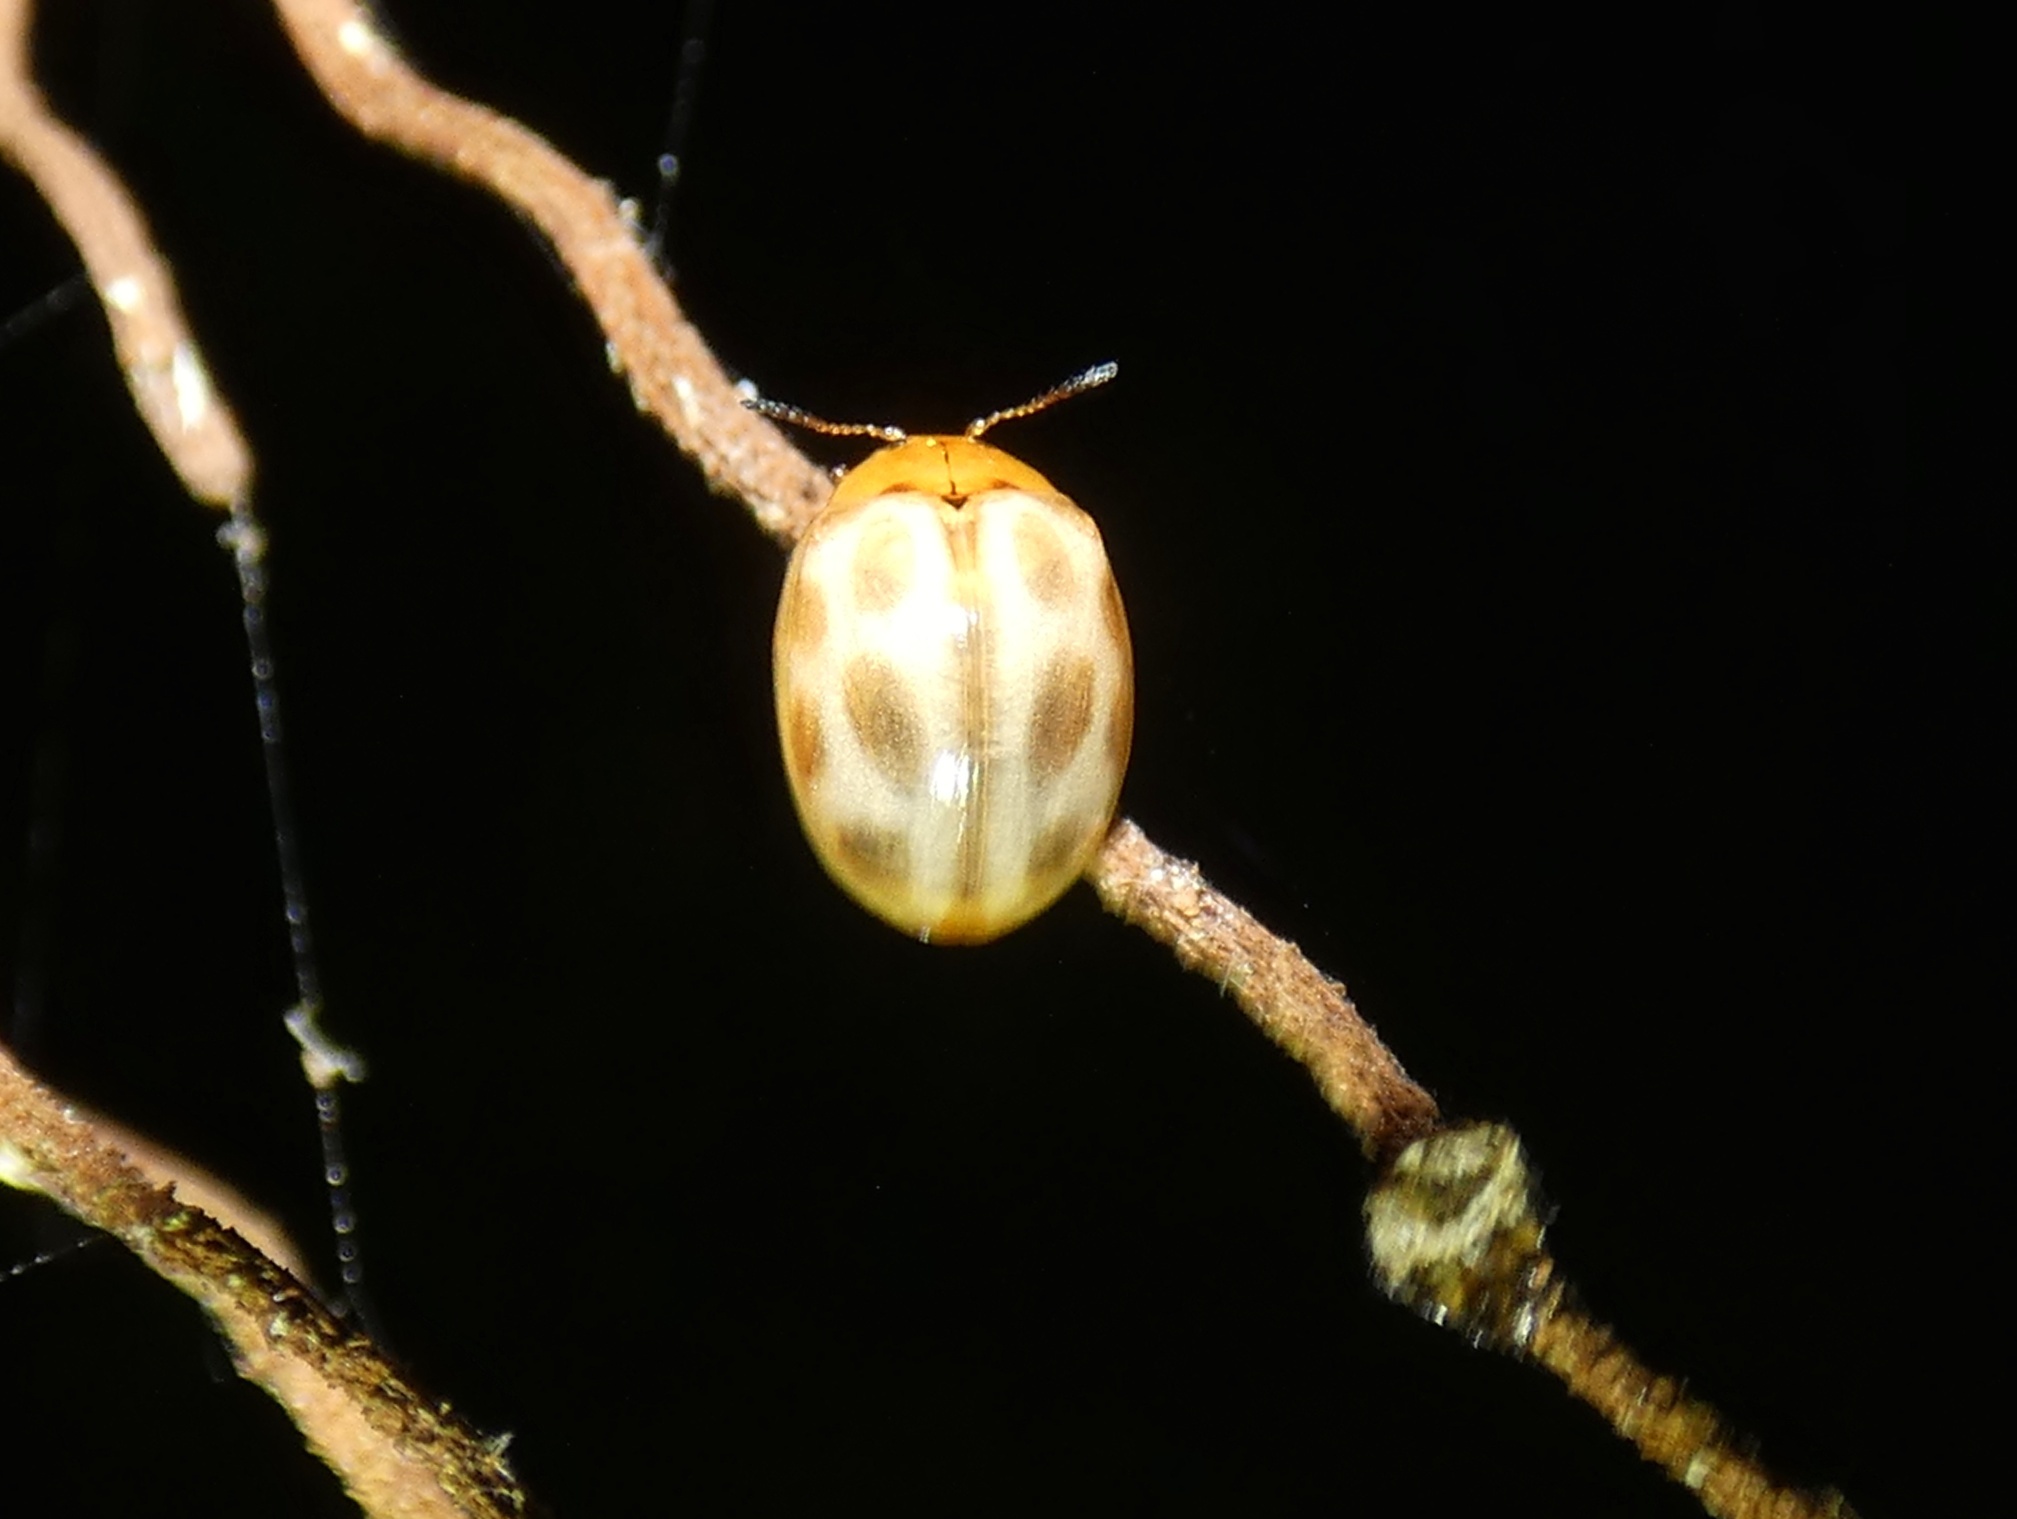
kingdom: Animalia
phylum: Arthropoda
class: Insecta
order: Coleoptera
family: Chrysomelidae
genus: Plagiodera
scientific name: Plagiodera
